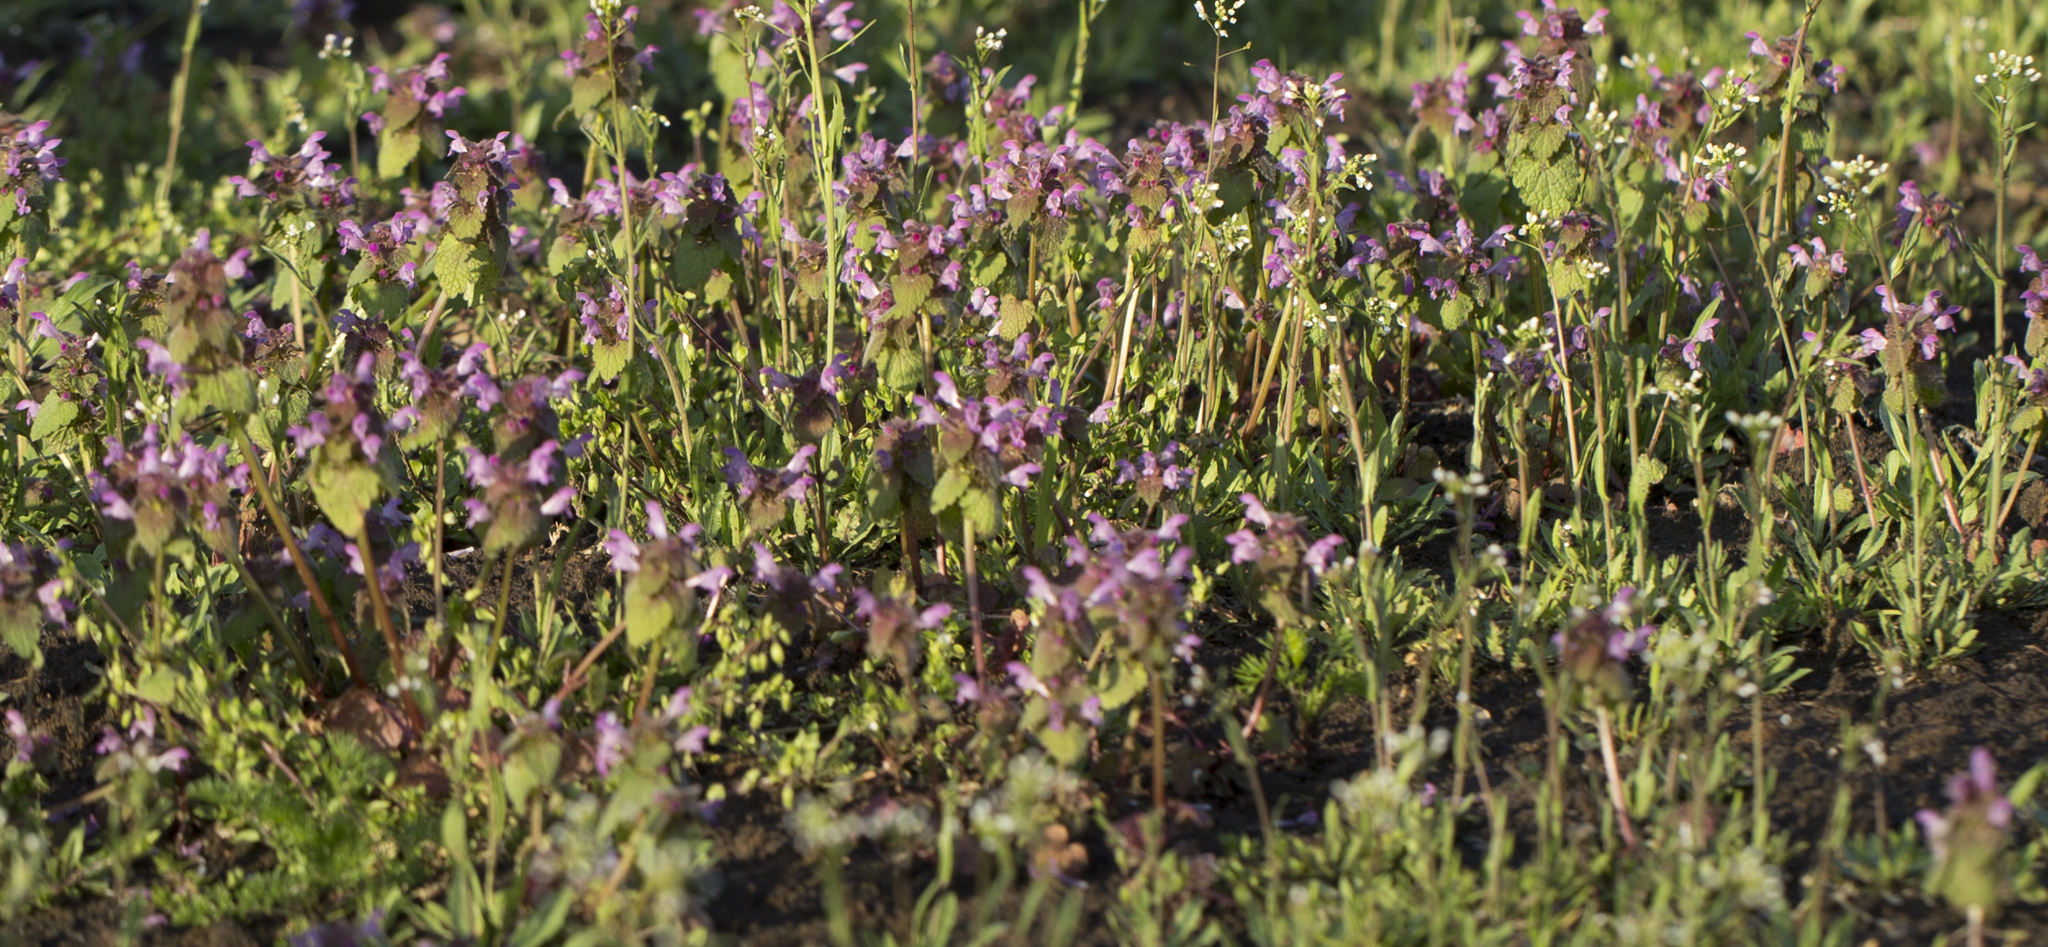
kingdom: Plantae
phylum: Tracheophyta
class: Magnoliopsida
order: Lamiales
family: Lamiaceae
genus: Lamium
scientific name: Lamium purpureum
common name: Red dead-nettle
